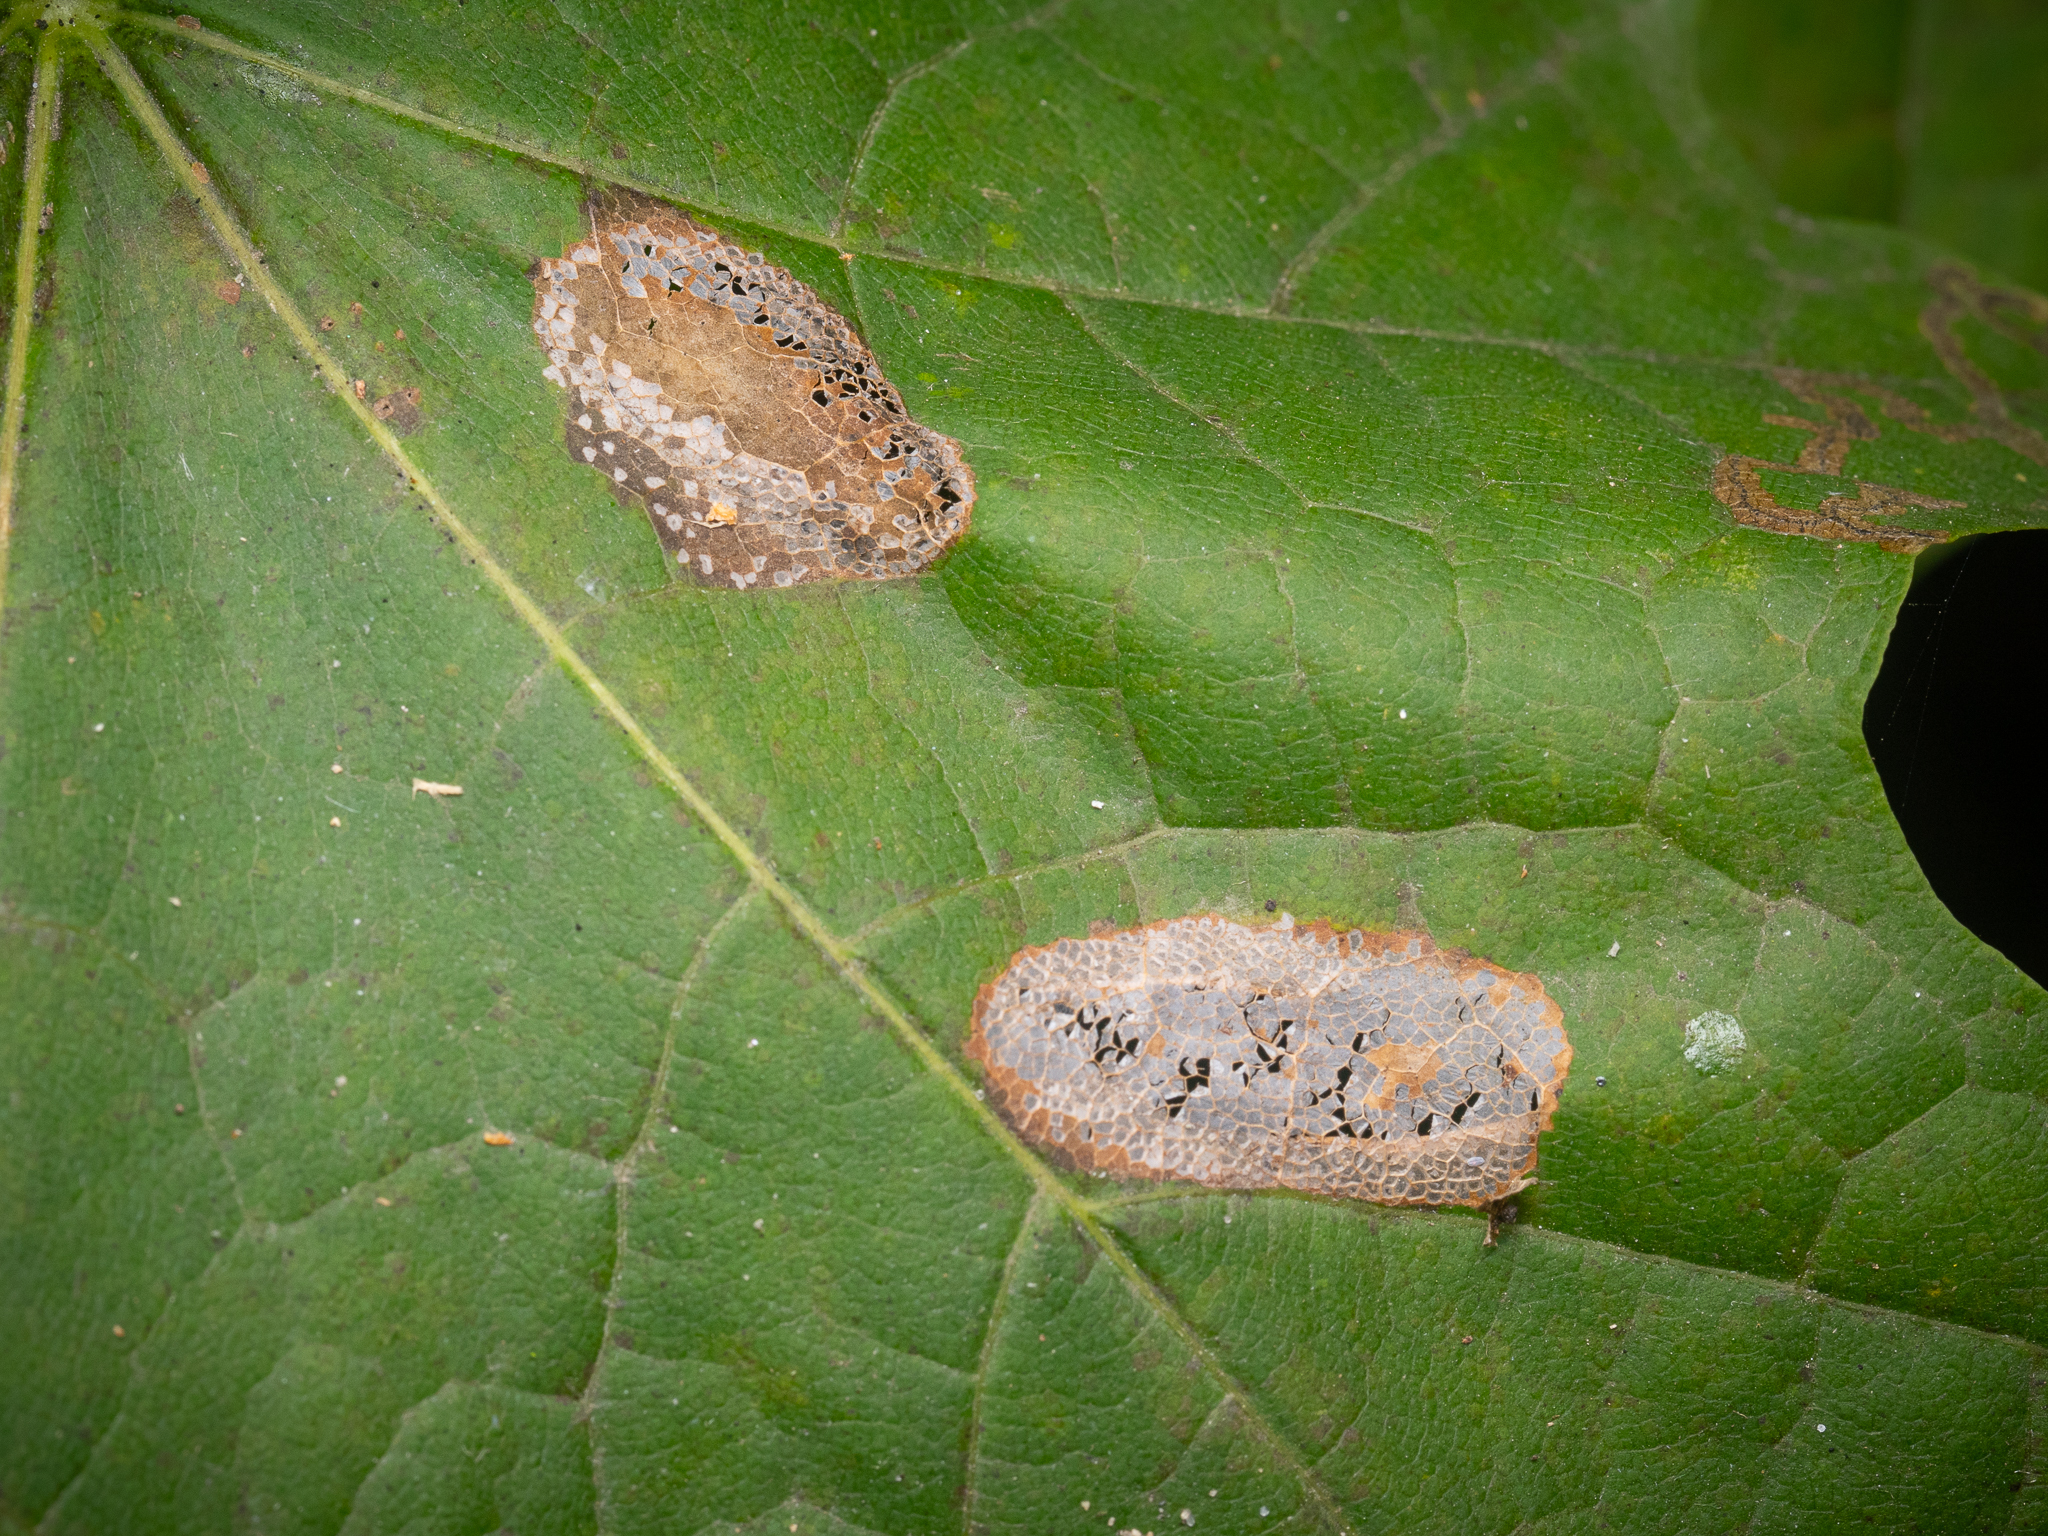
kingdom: Animalia
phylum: Arthropoda
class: Insecta
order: Lepidoptera
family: Gracillariidae
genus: Phyllonorycter
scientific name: Phyllonorycter joannisi
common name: White-bodied midget
